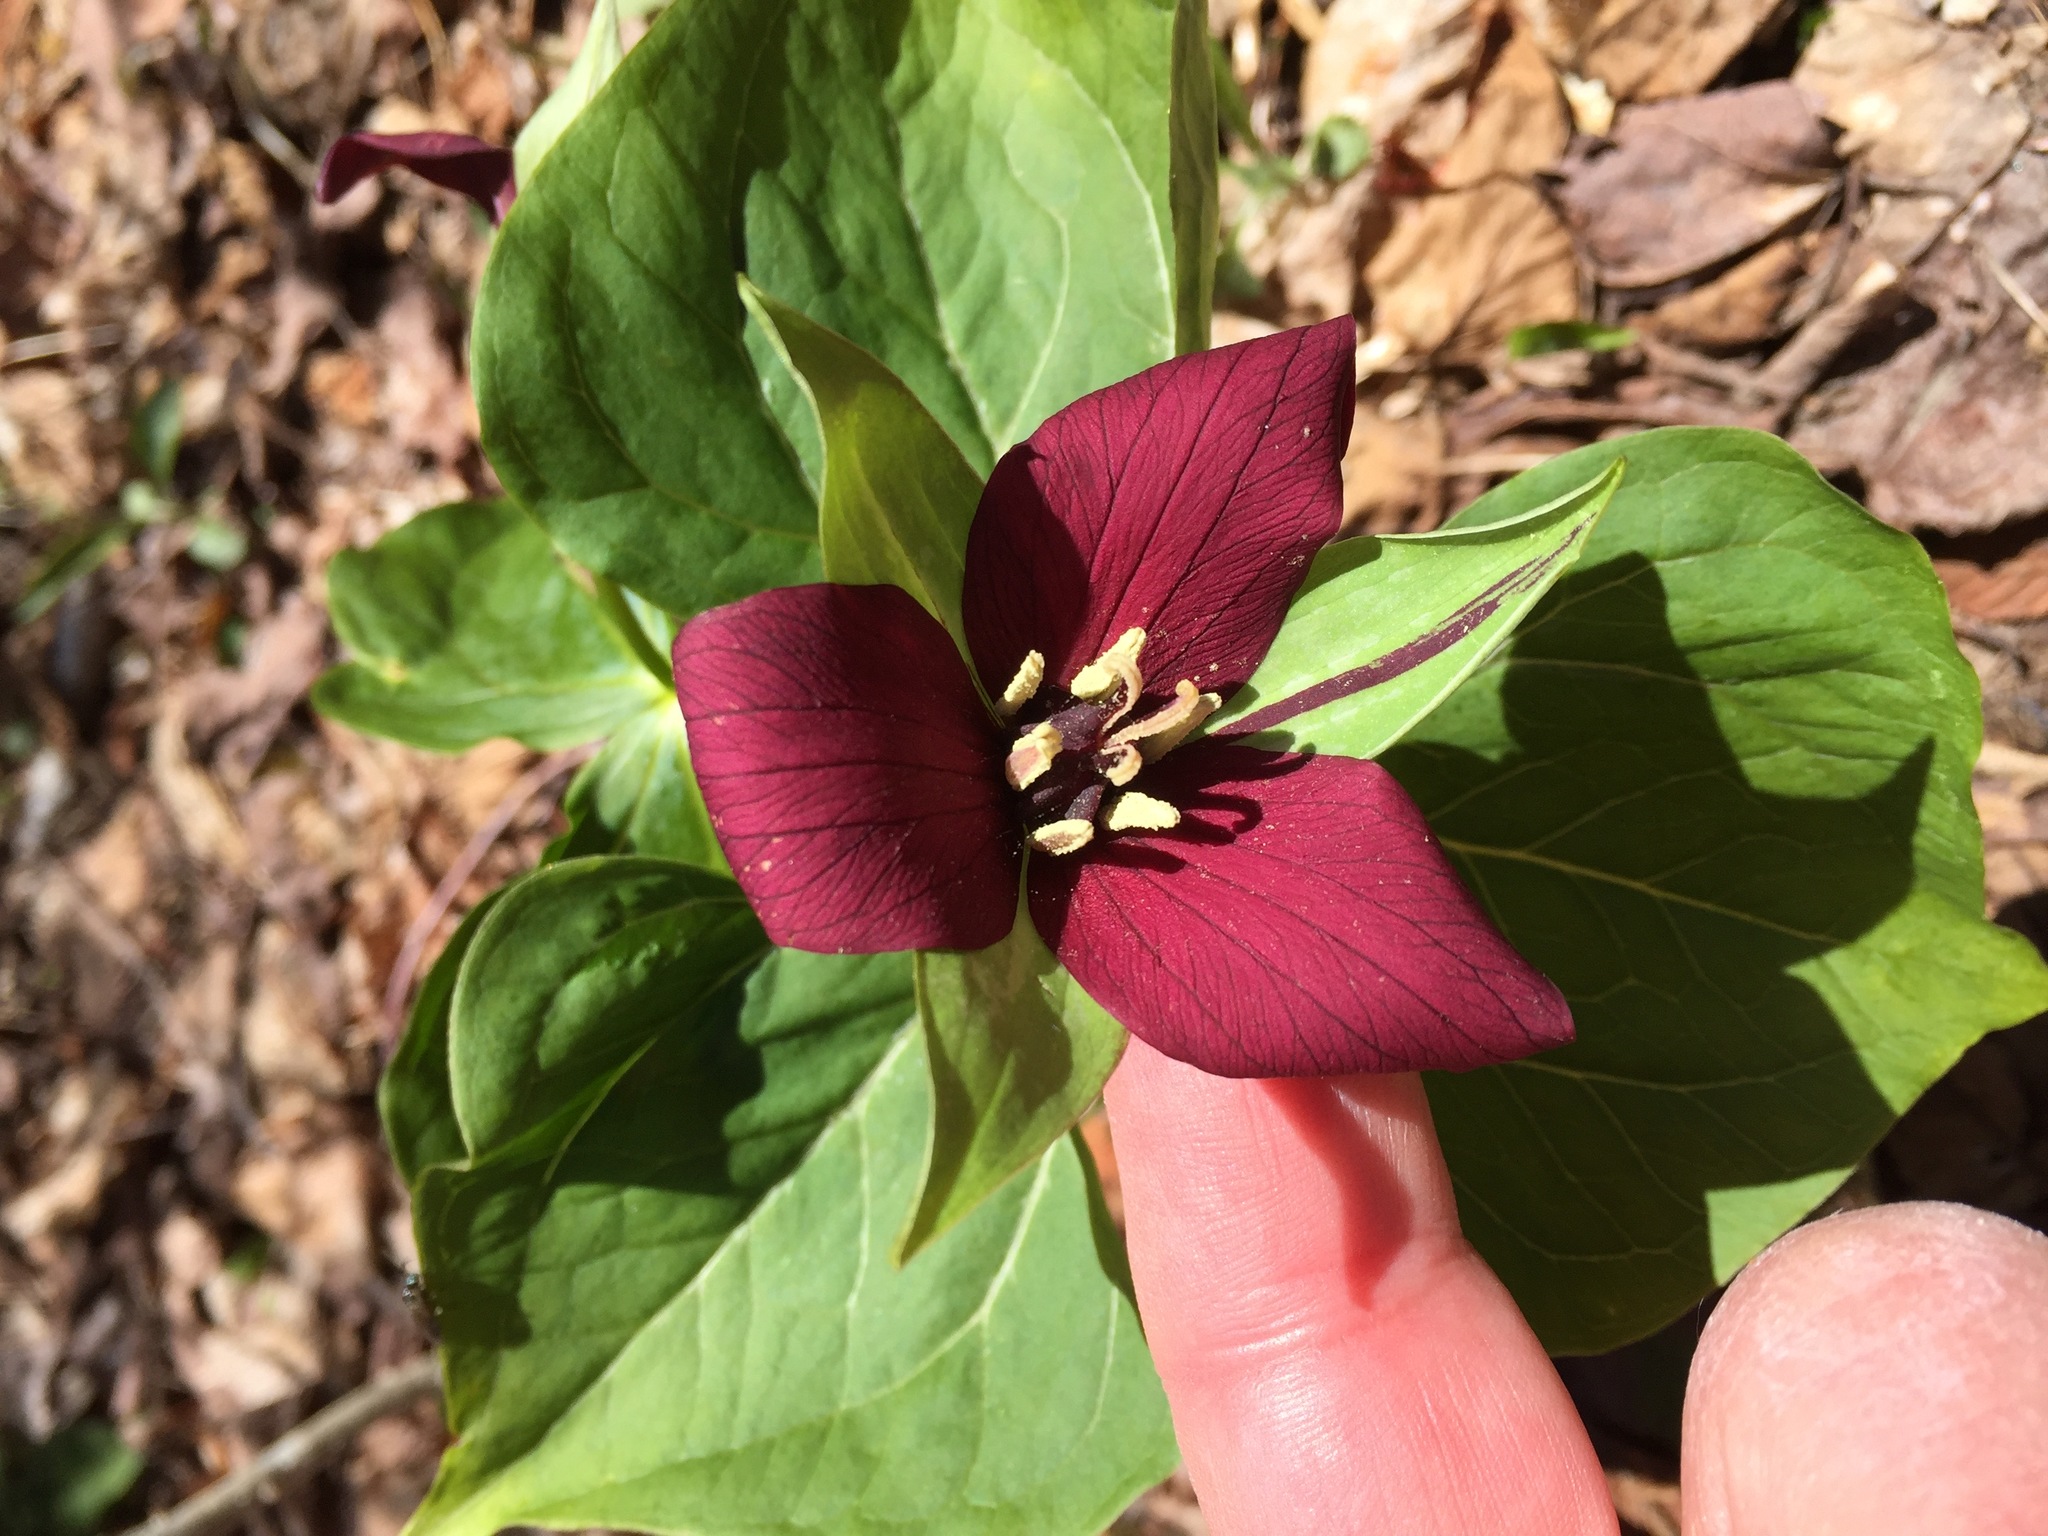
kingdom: Plantae
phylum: Tracheophyta
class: Liliopsida
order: Liliales
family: Melanthiaceae
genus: Trillium
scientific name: Trillium erectum
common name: Purple trillium
